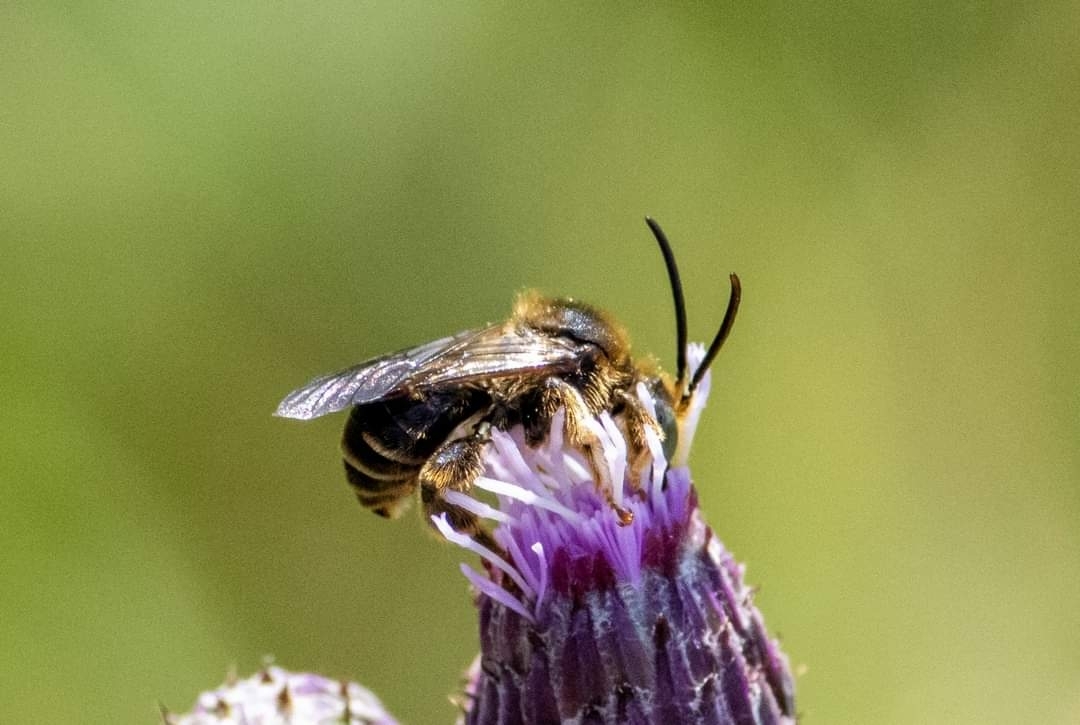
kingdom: Animalia
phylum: Arthropoda
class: Insecta
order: Hymenoptera
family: Melittidae
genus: Macropis
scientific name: Macropis europaea
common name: Yellow loosestrife bee
